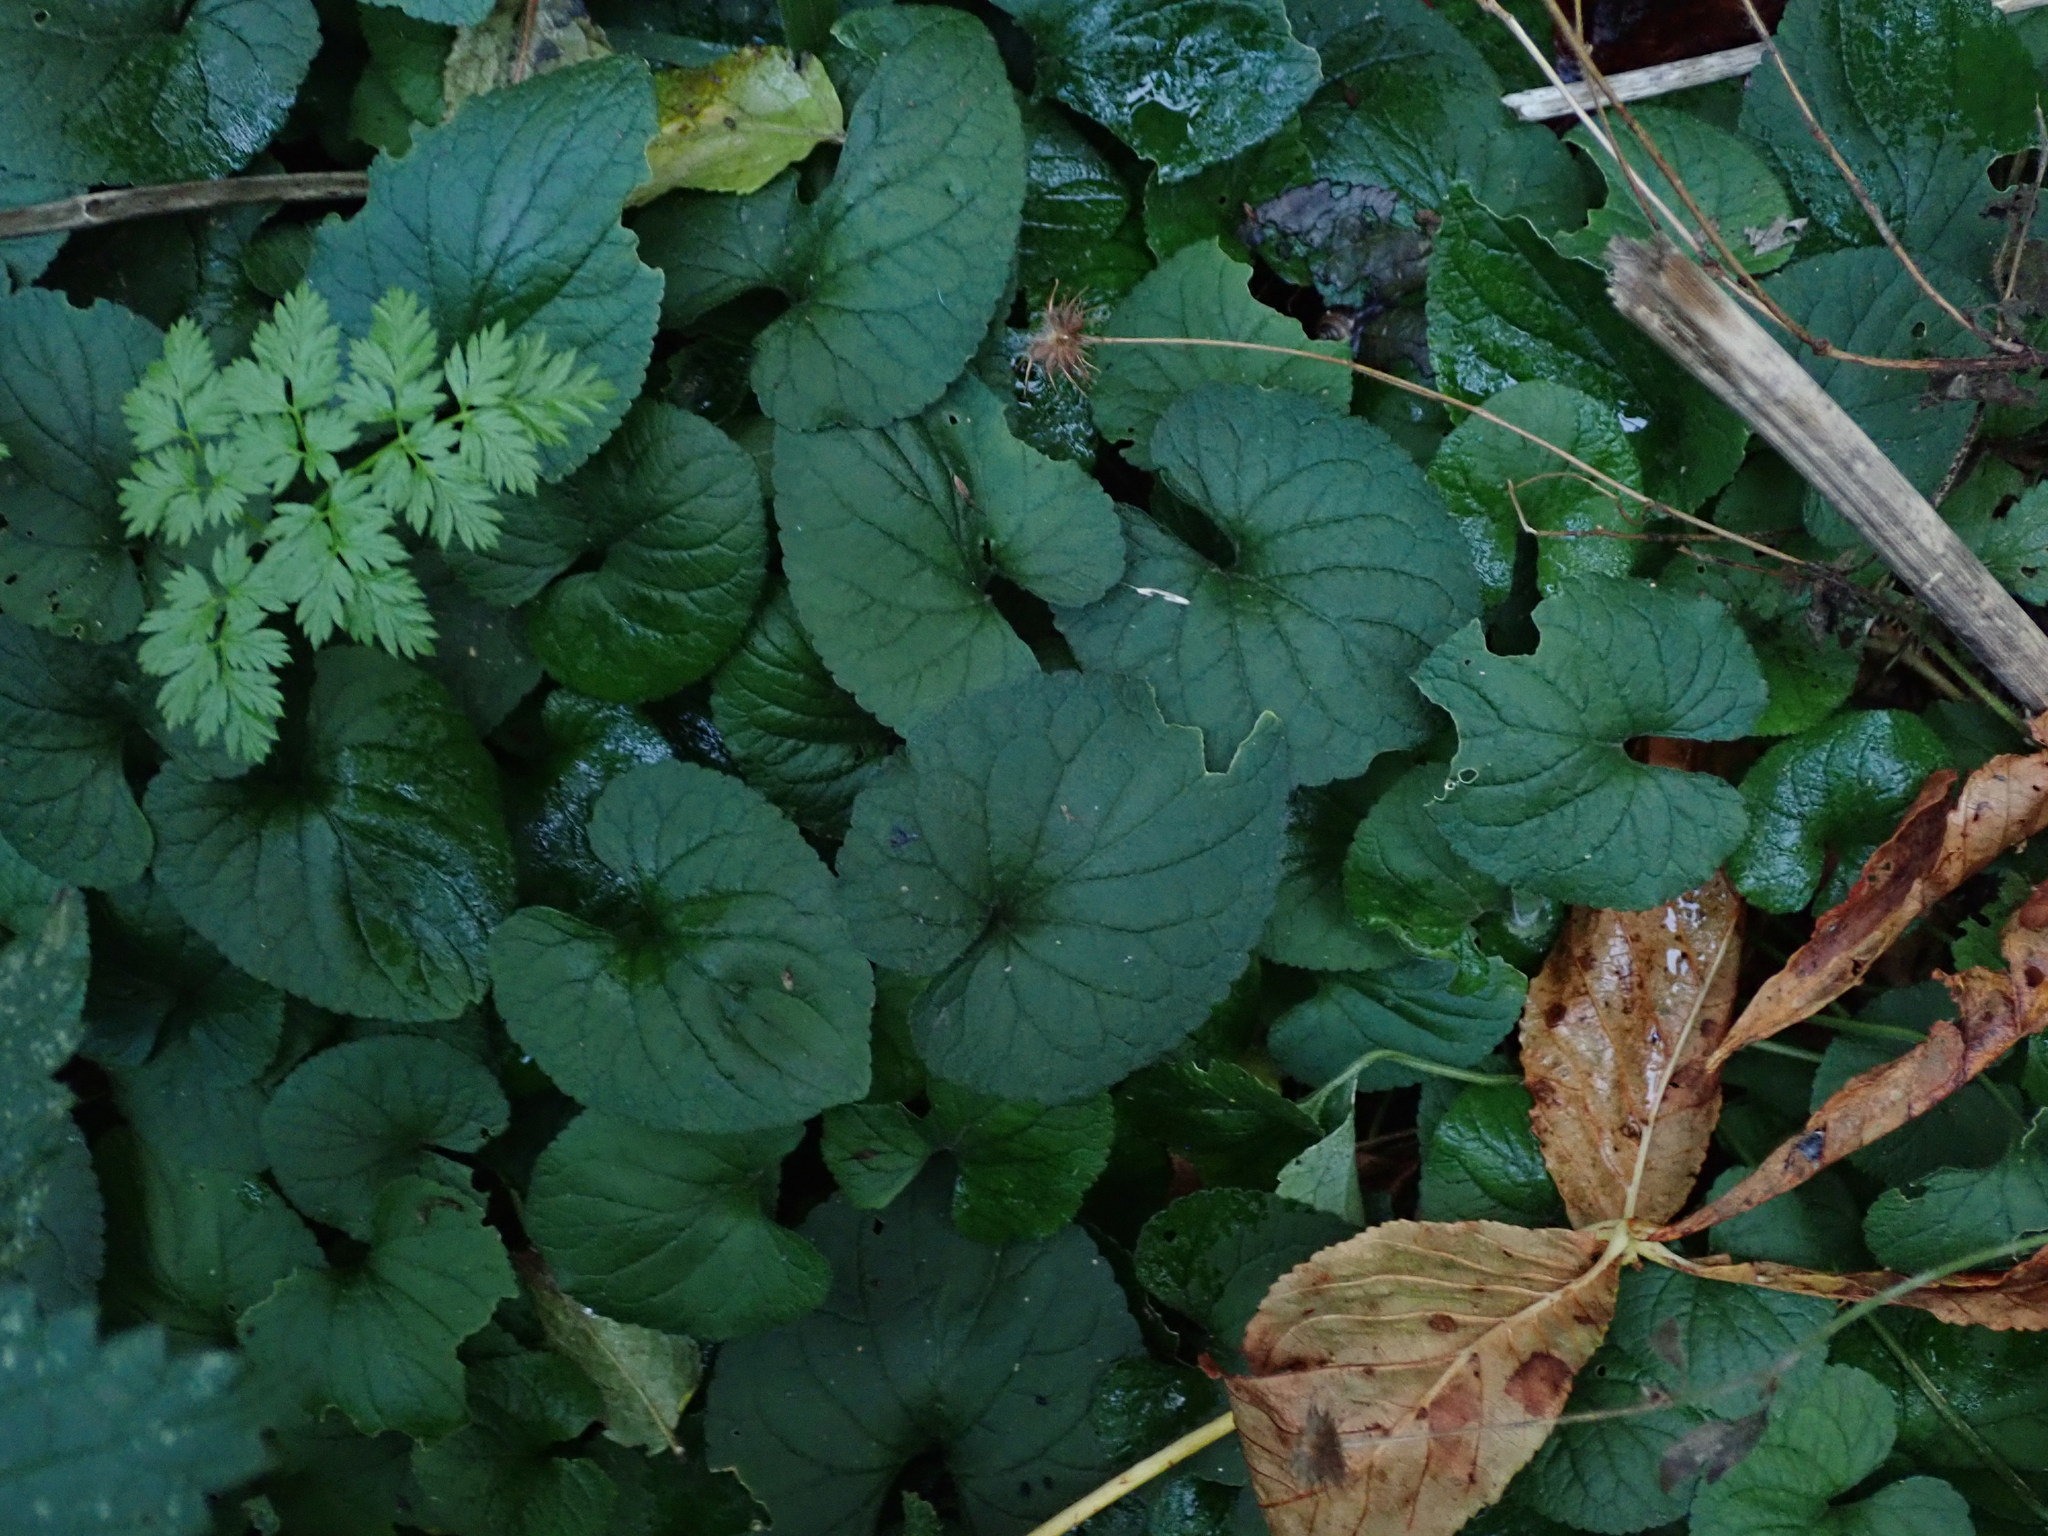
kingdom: Plantae
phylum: Tracheophyta
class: Magnoliopsida
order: Malpighiales
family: Violaceae
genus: Viola
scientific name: Viola odorata
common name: Sweet violet
